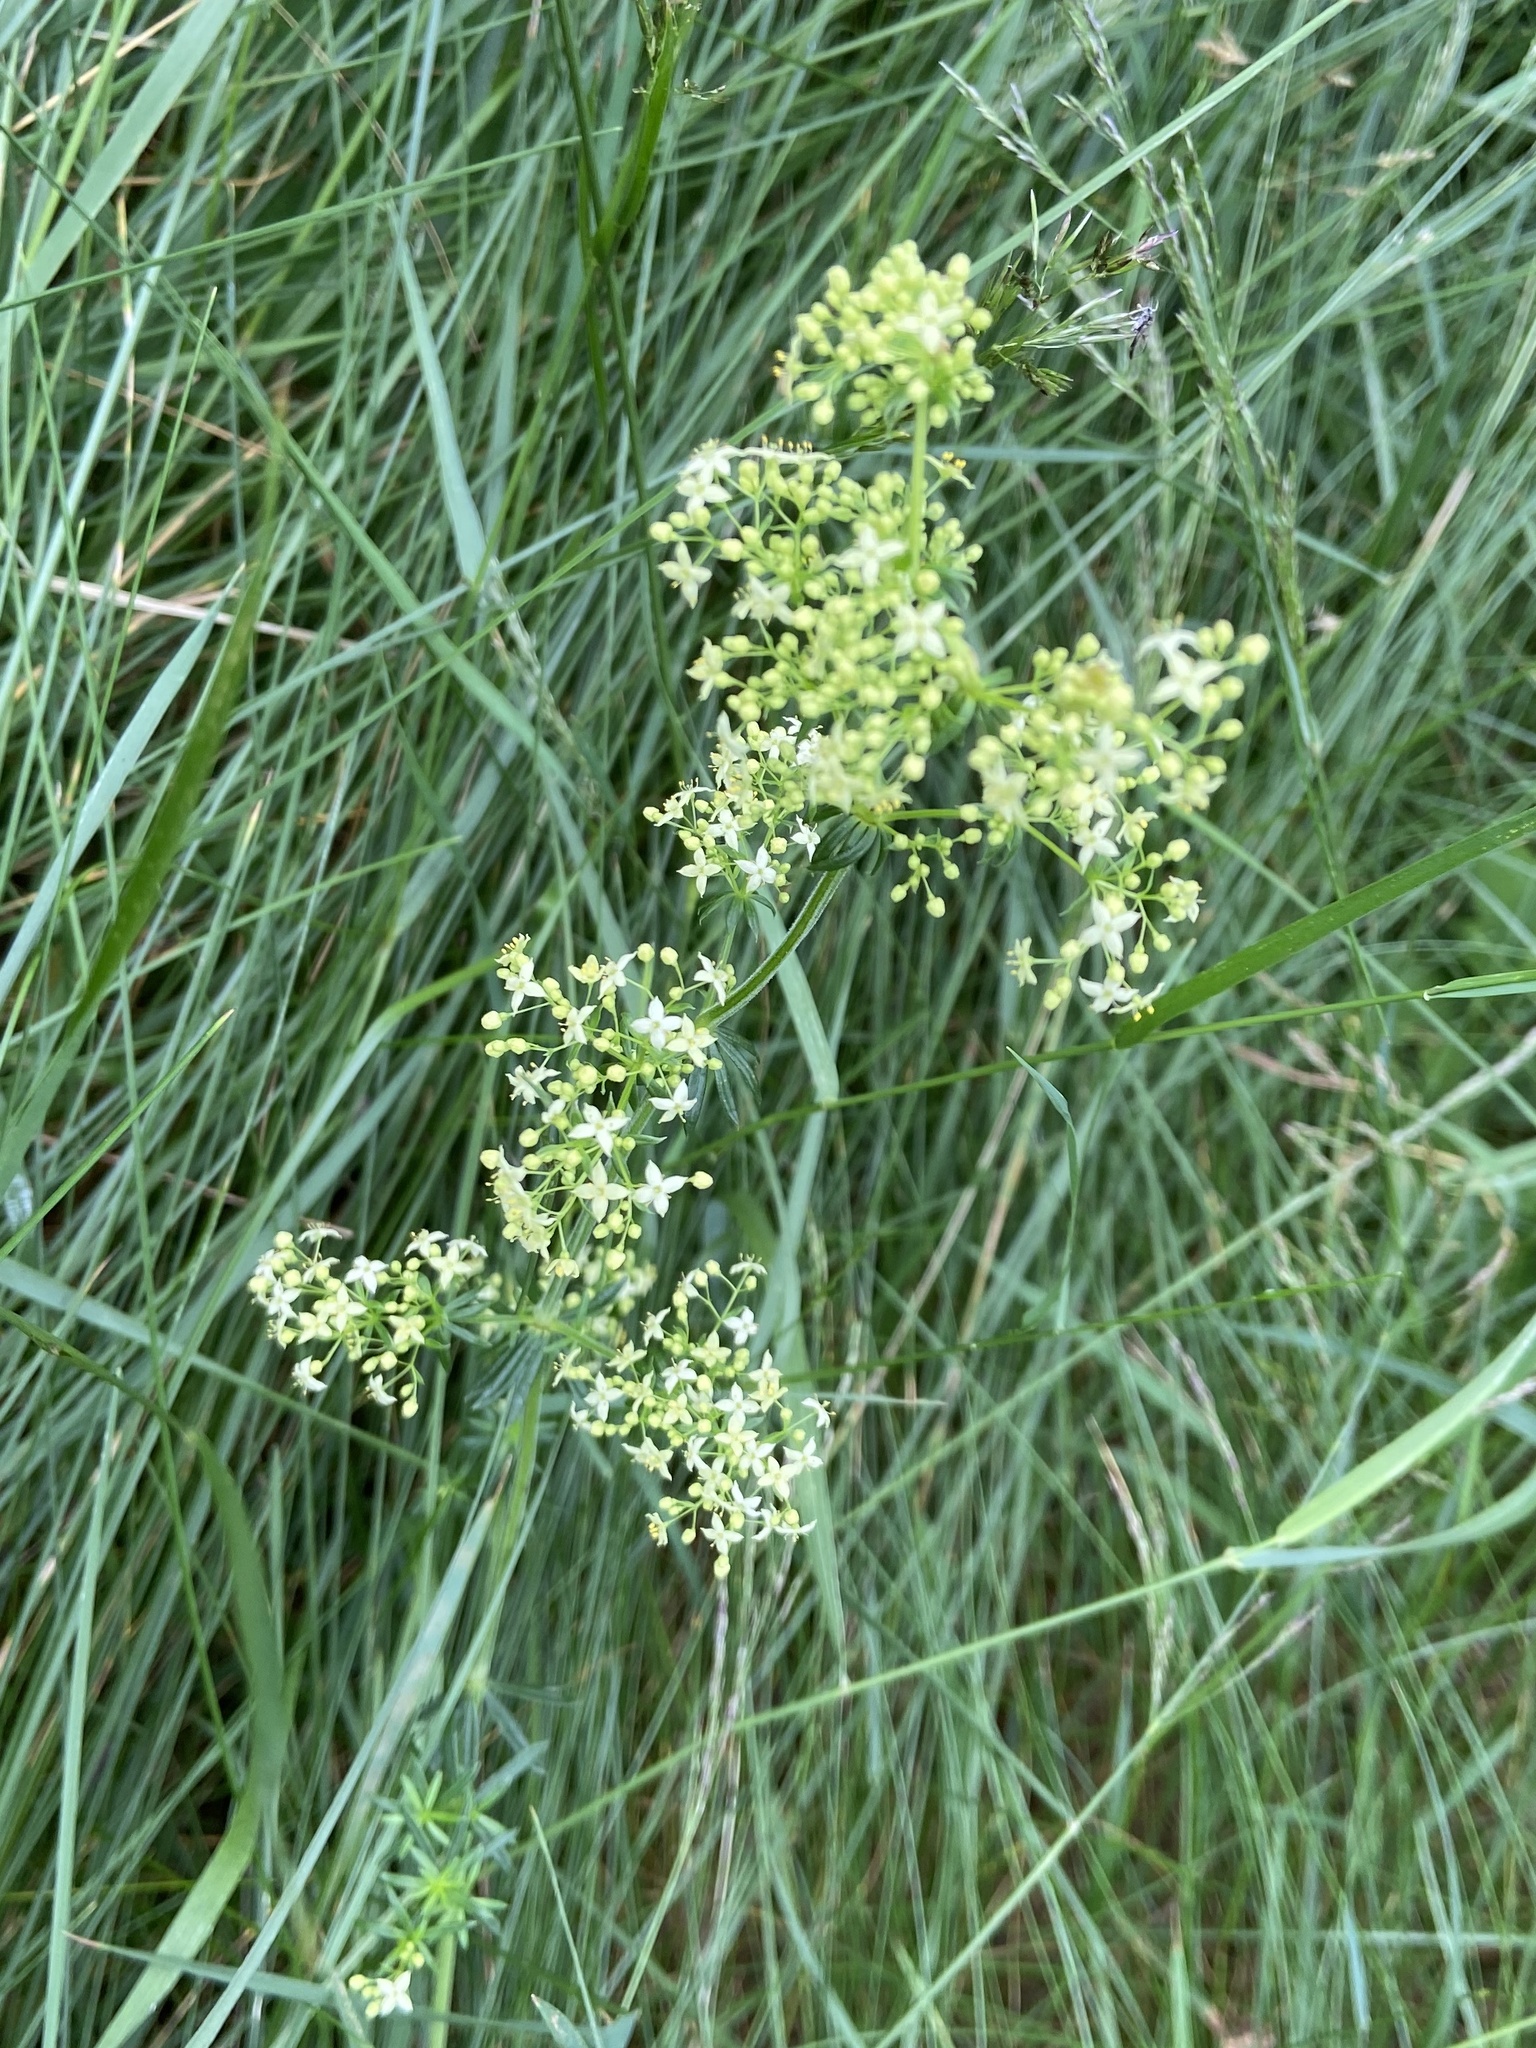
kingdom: Plantae
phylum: Tracheophyta
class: Magnoliopsida
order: Gentianales
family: Rubiaceae
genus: Galium
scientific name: Galium mollugo
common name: Hedge bedstraw
